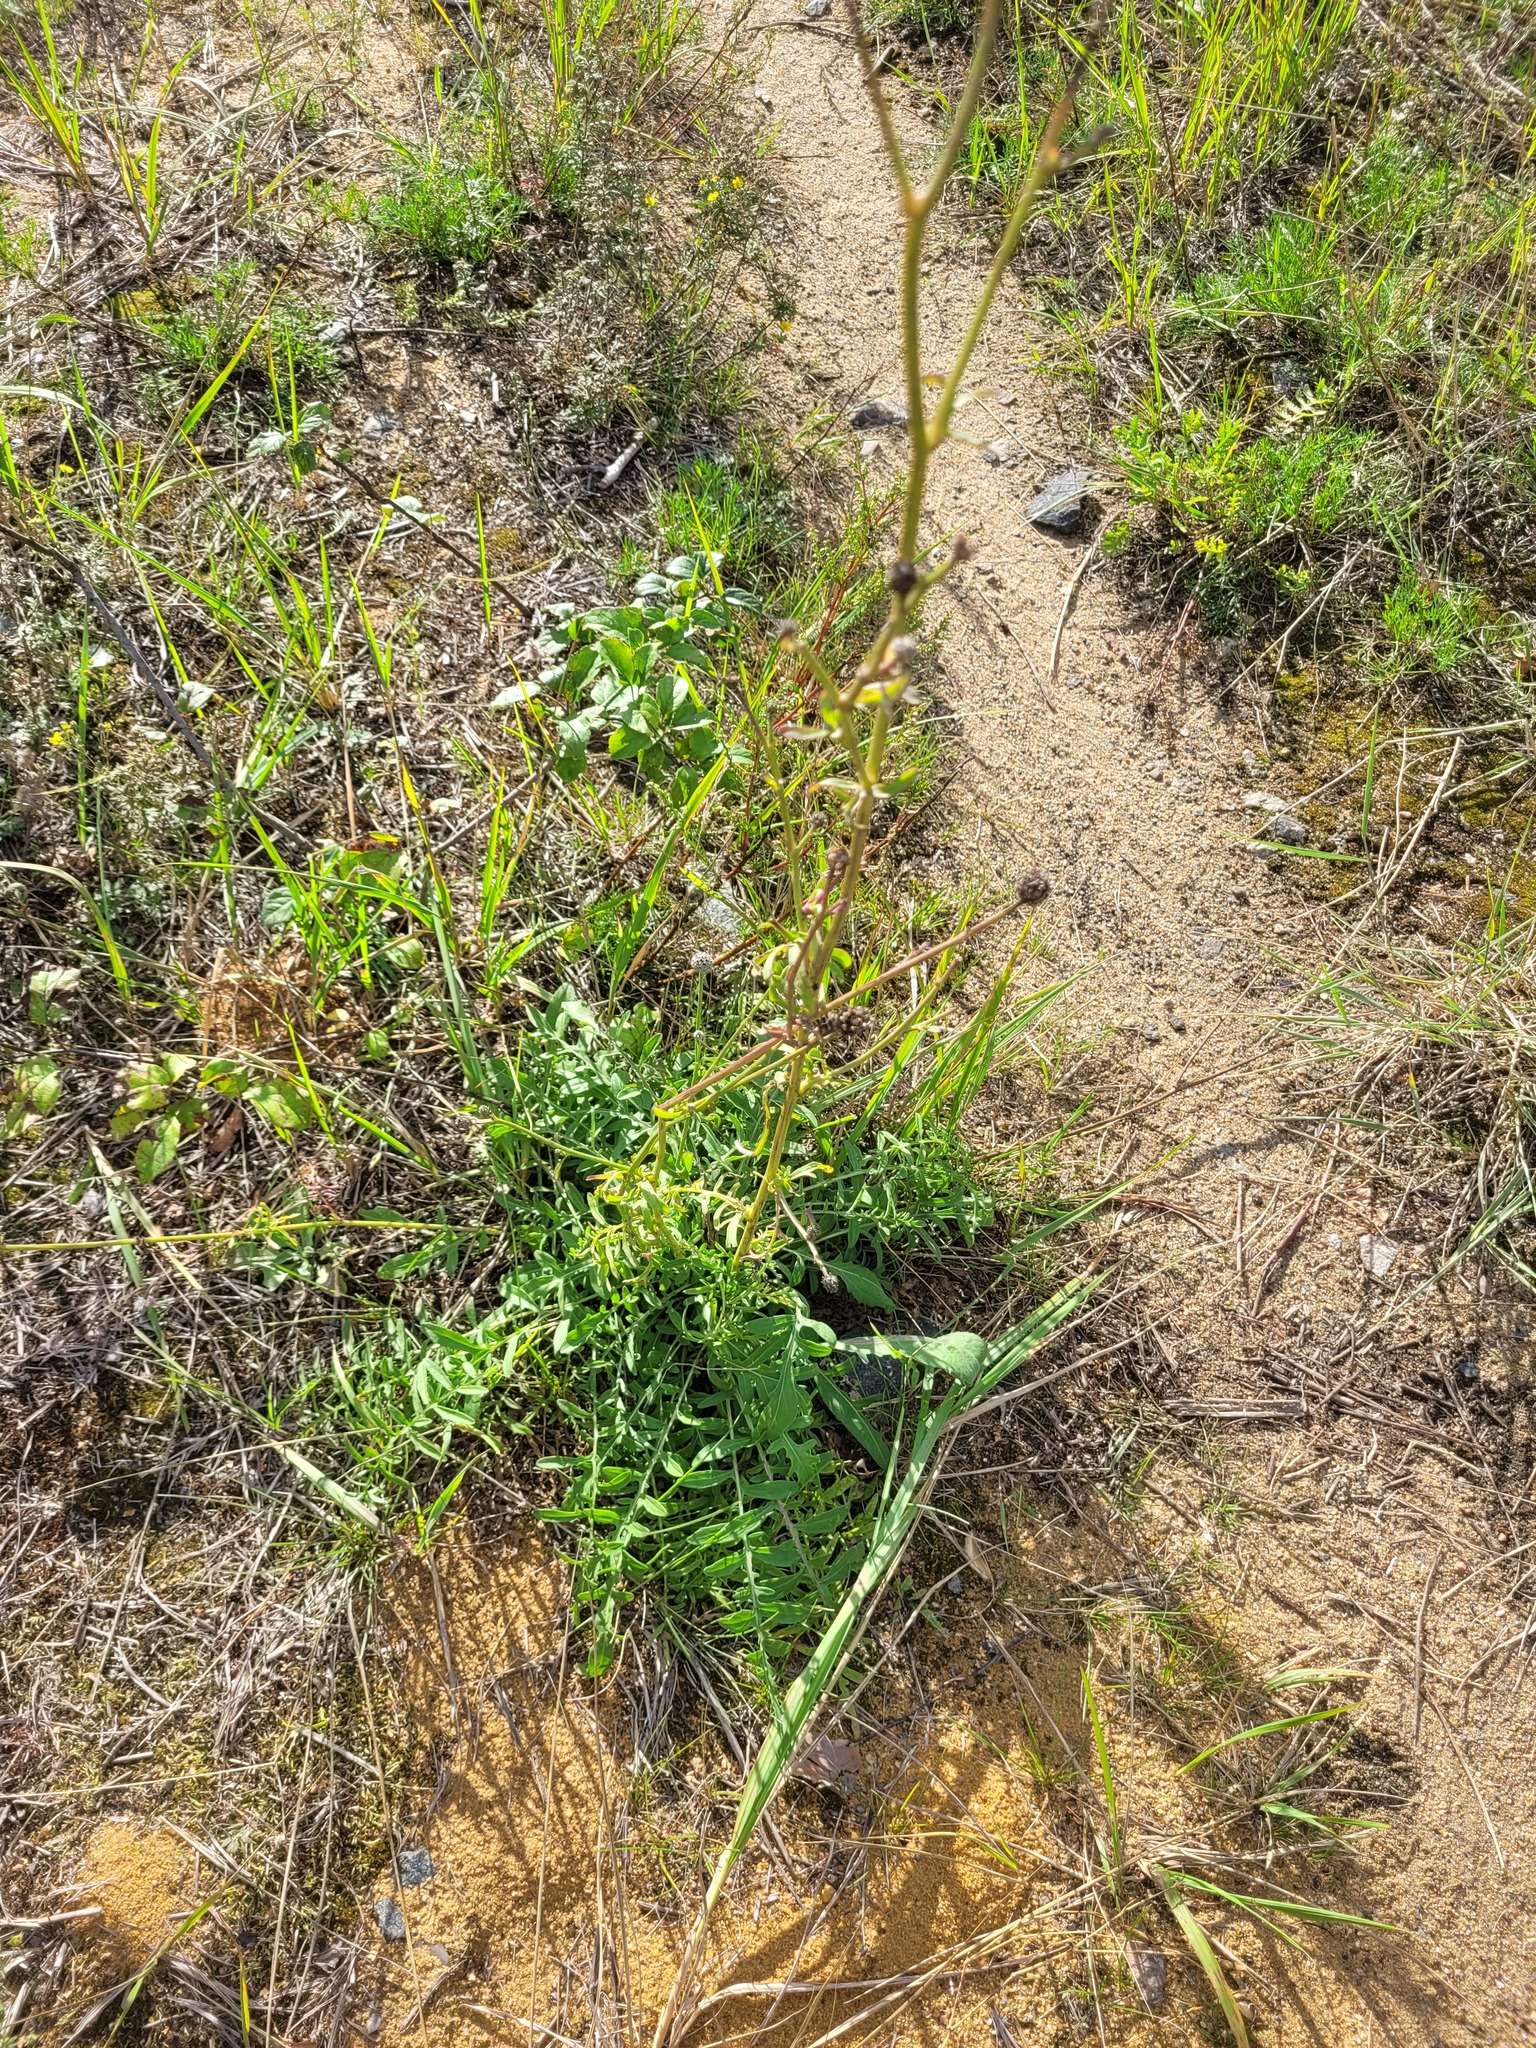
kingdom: Plantae
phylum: Tracheophyta
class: Magnoliopsida
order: Asterales
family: Asteraceae
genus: Centaurea
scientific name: Centaurea scabiosa
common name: Greater knapweed
